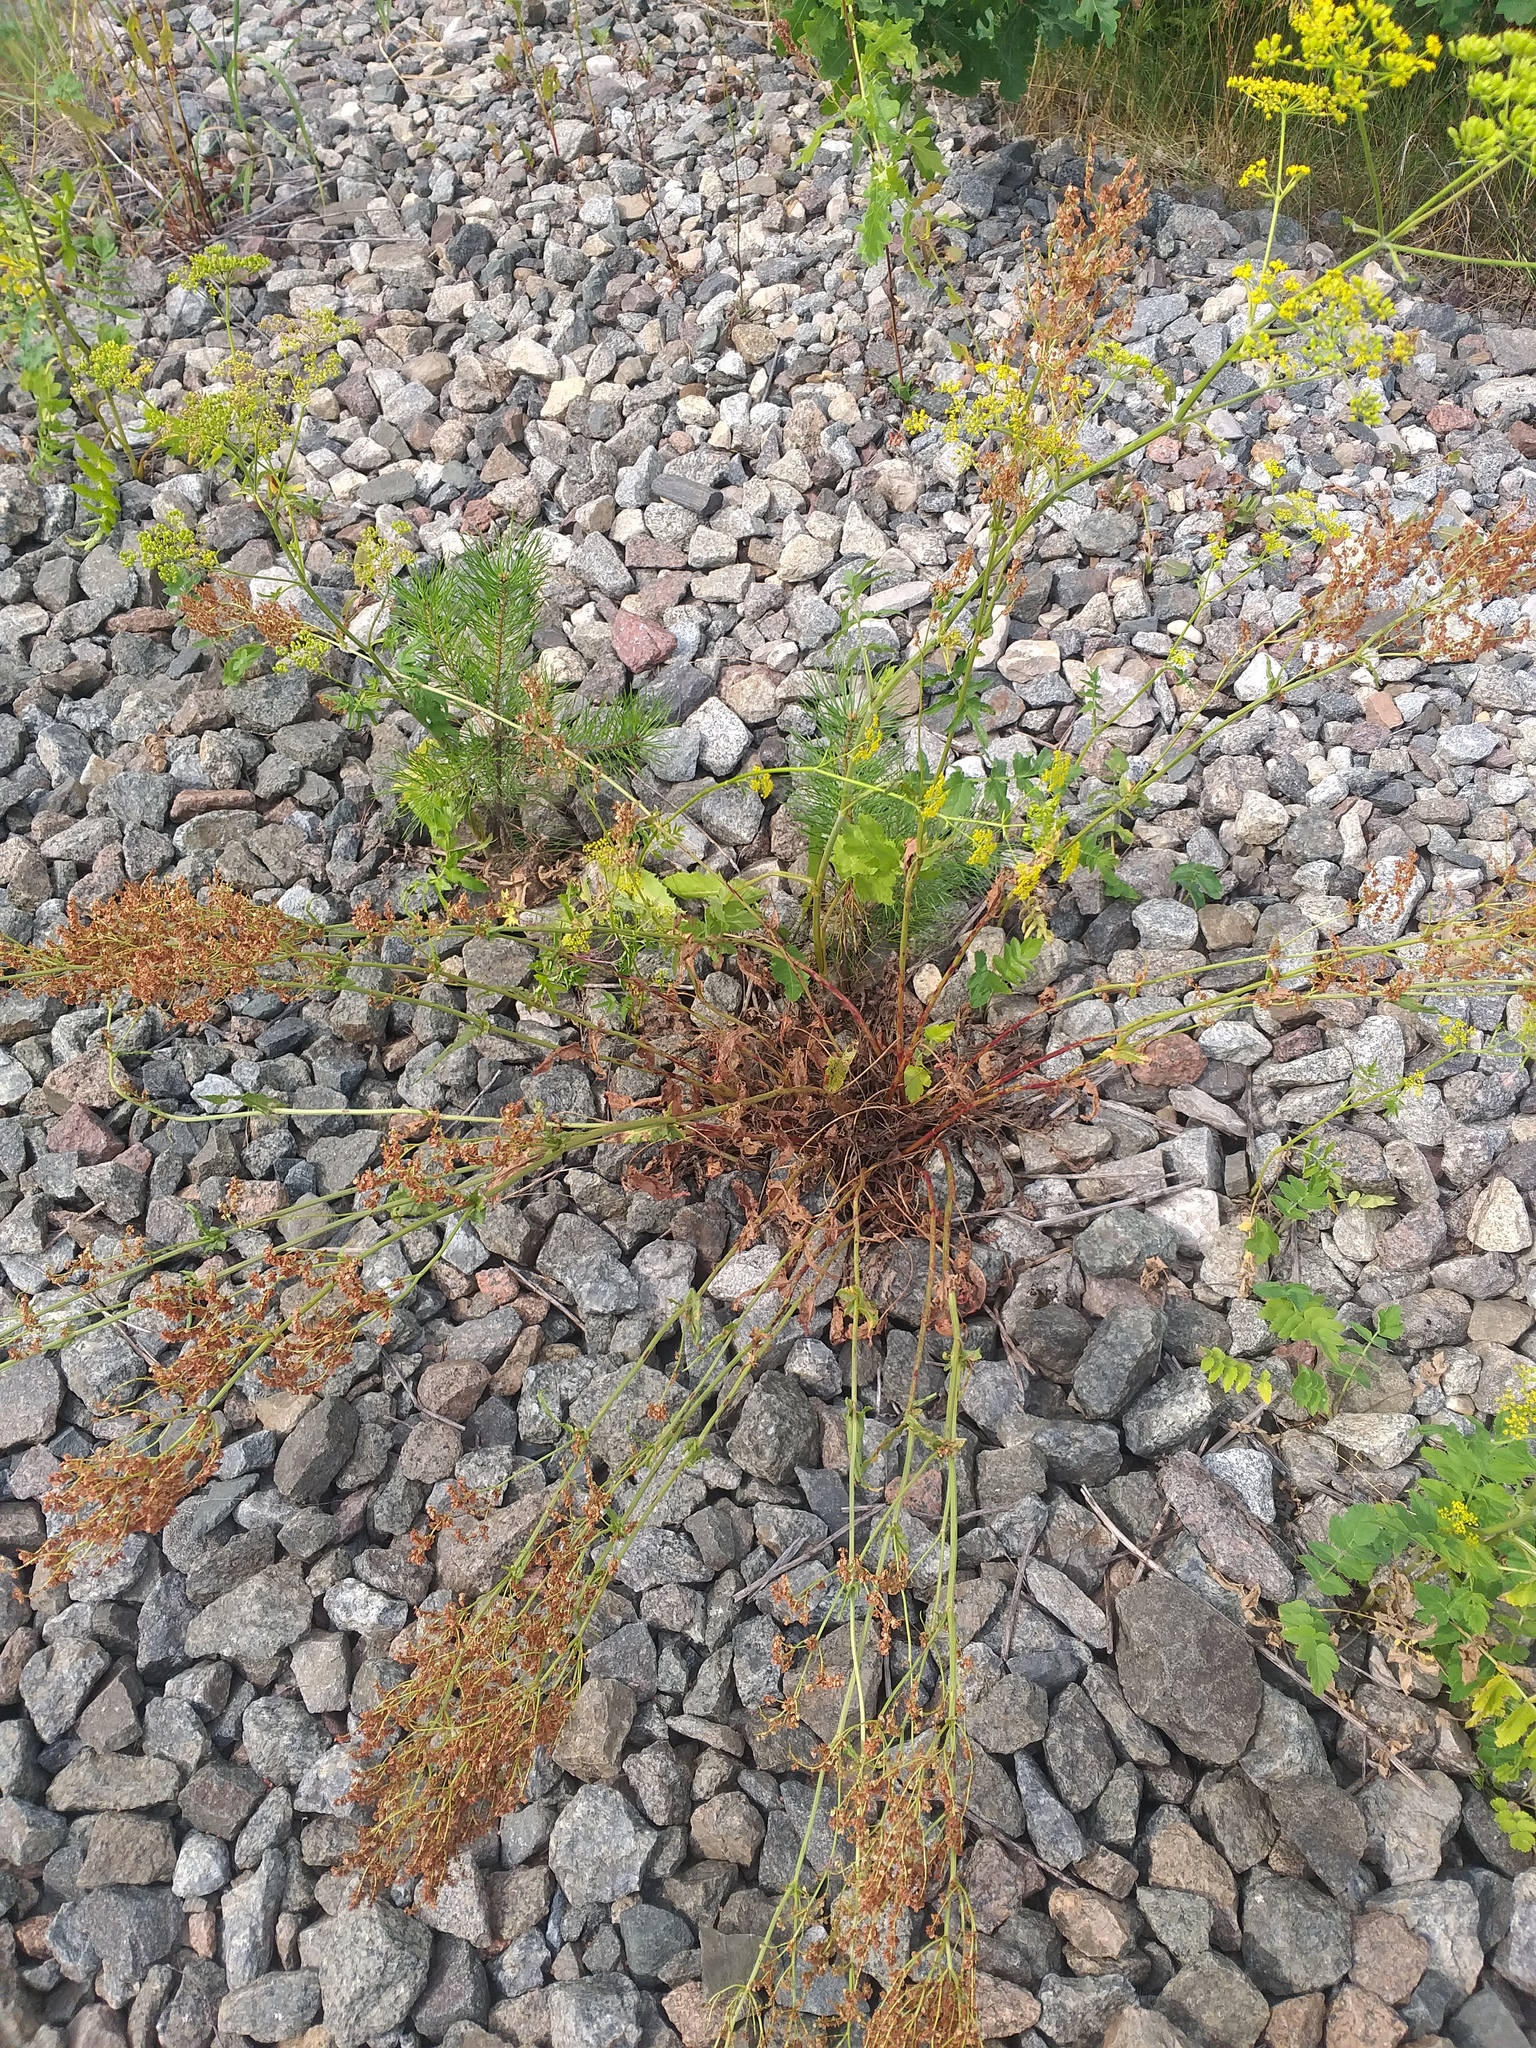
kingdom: Plantae
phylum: Tracheophyta
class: Magnoliopsida
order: Caryophyllales
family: Polygonaceae
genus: Rumex
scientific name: Rumex thyrsiflorus
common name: Garden sorrel
